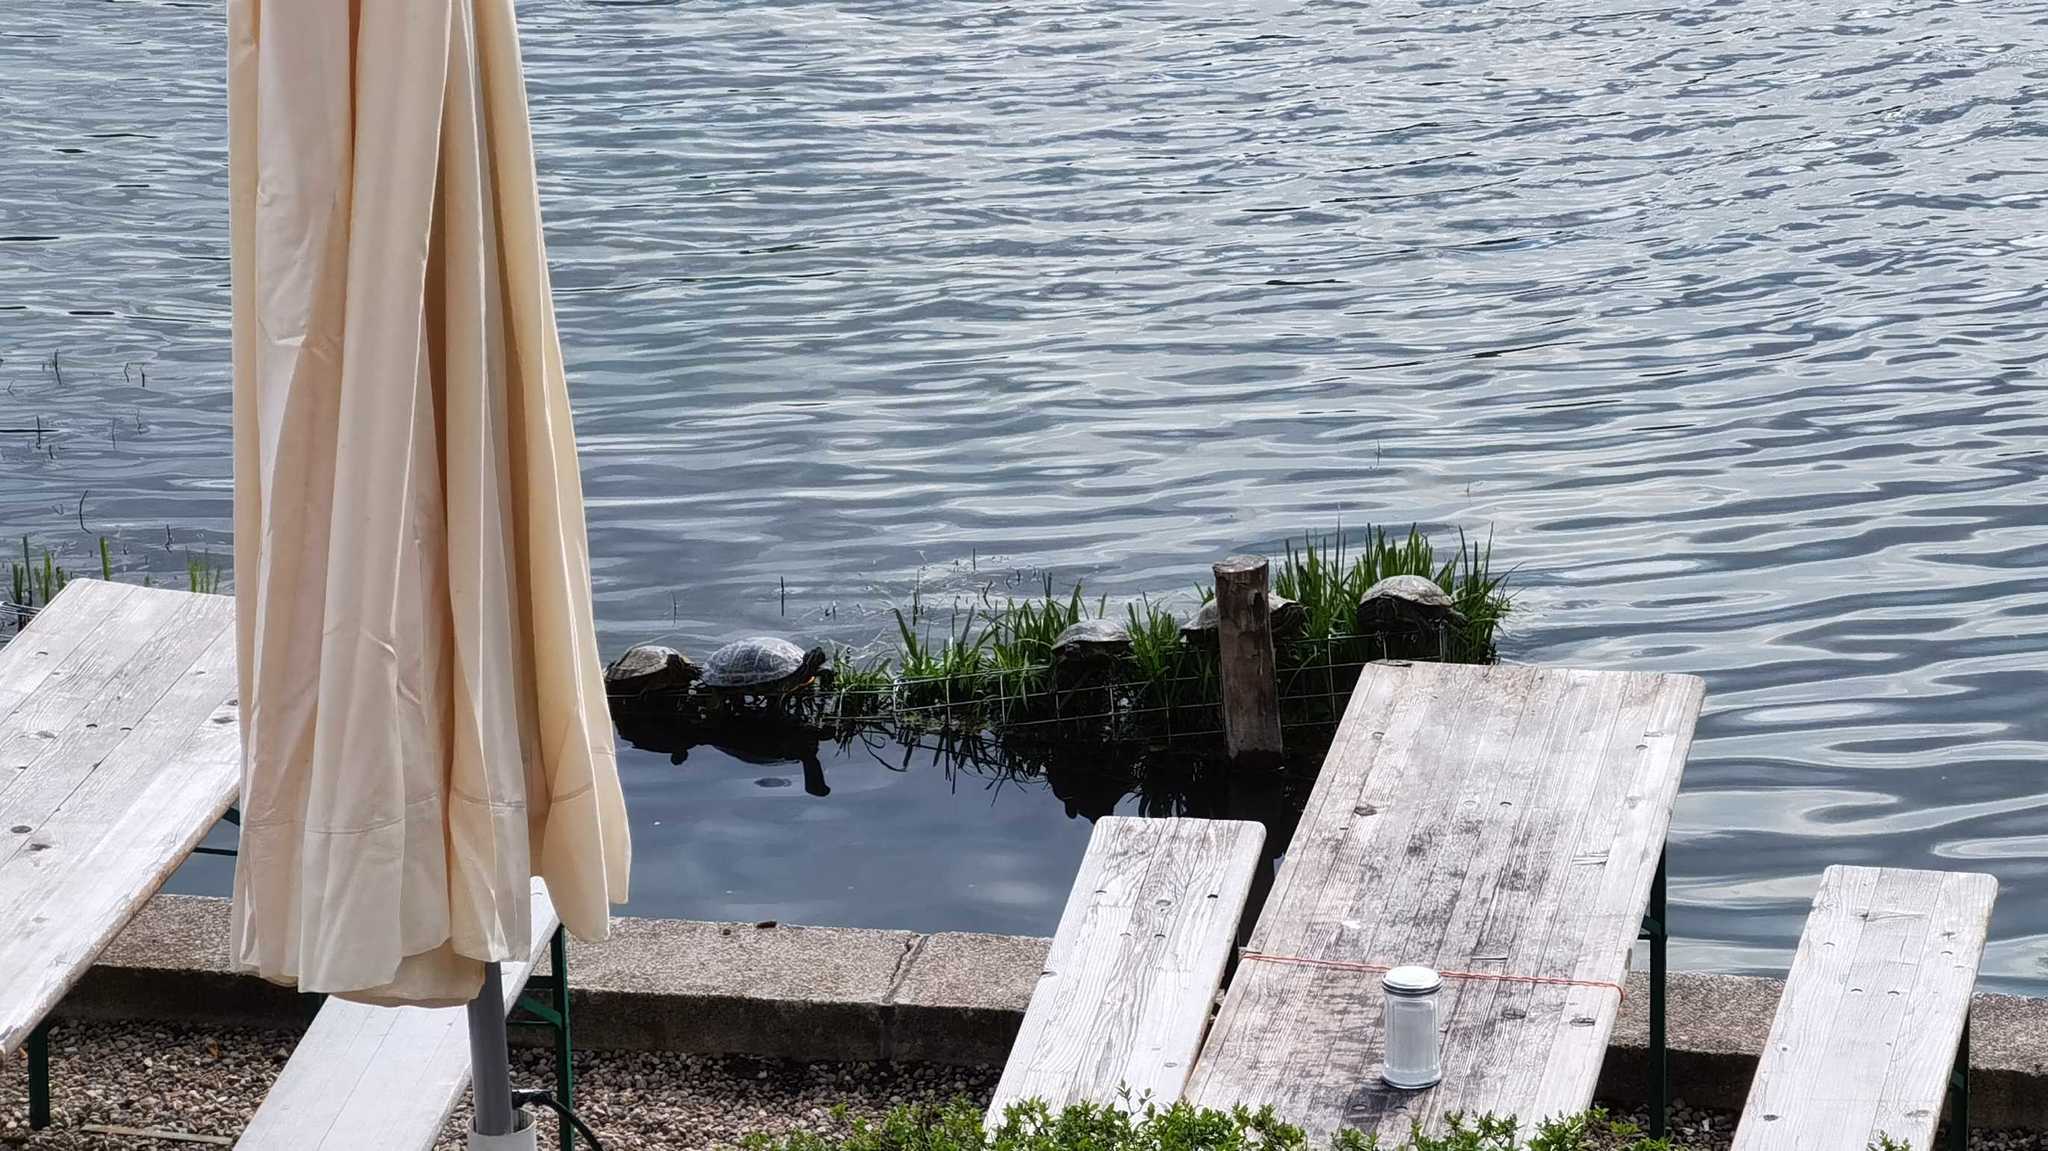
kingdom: Animalia
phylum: Chordata
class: Testudines
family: Emydidae
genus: Trachemys
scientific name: Trachemys scripta
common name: Slider
